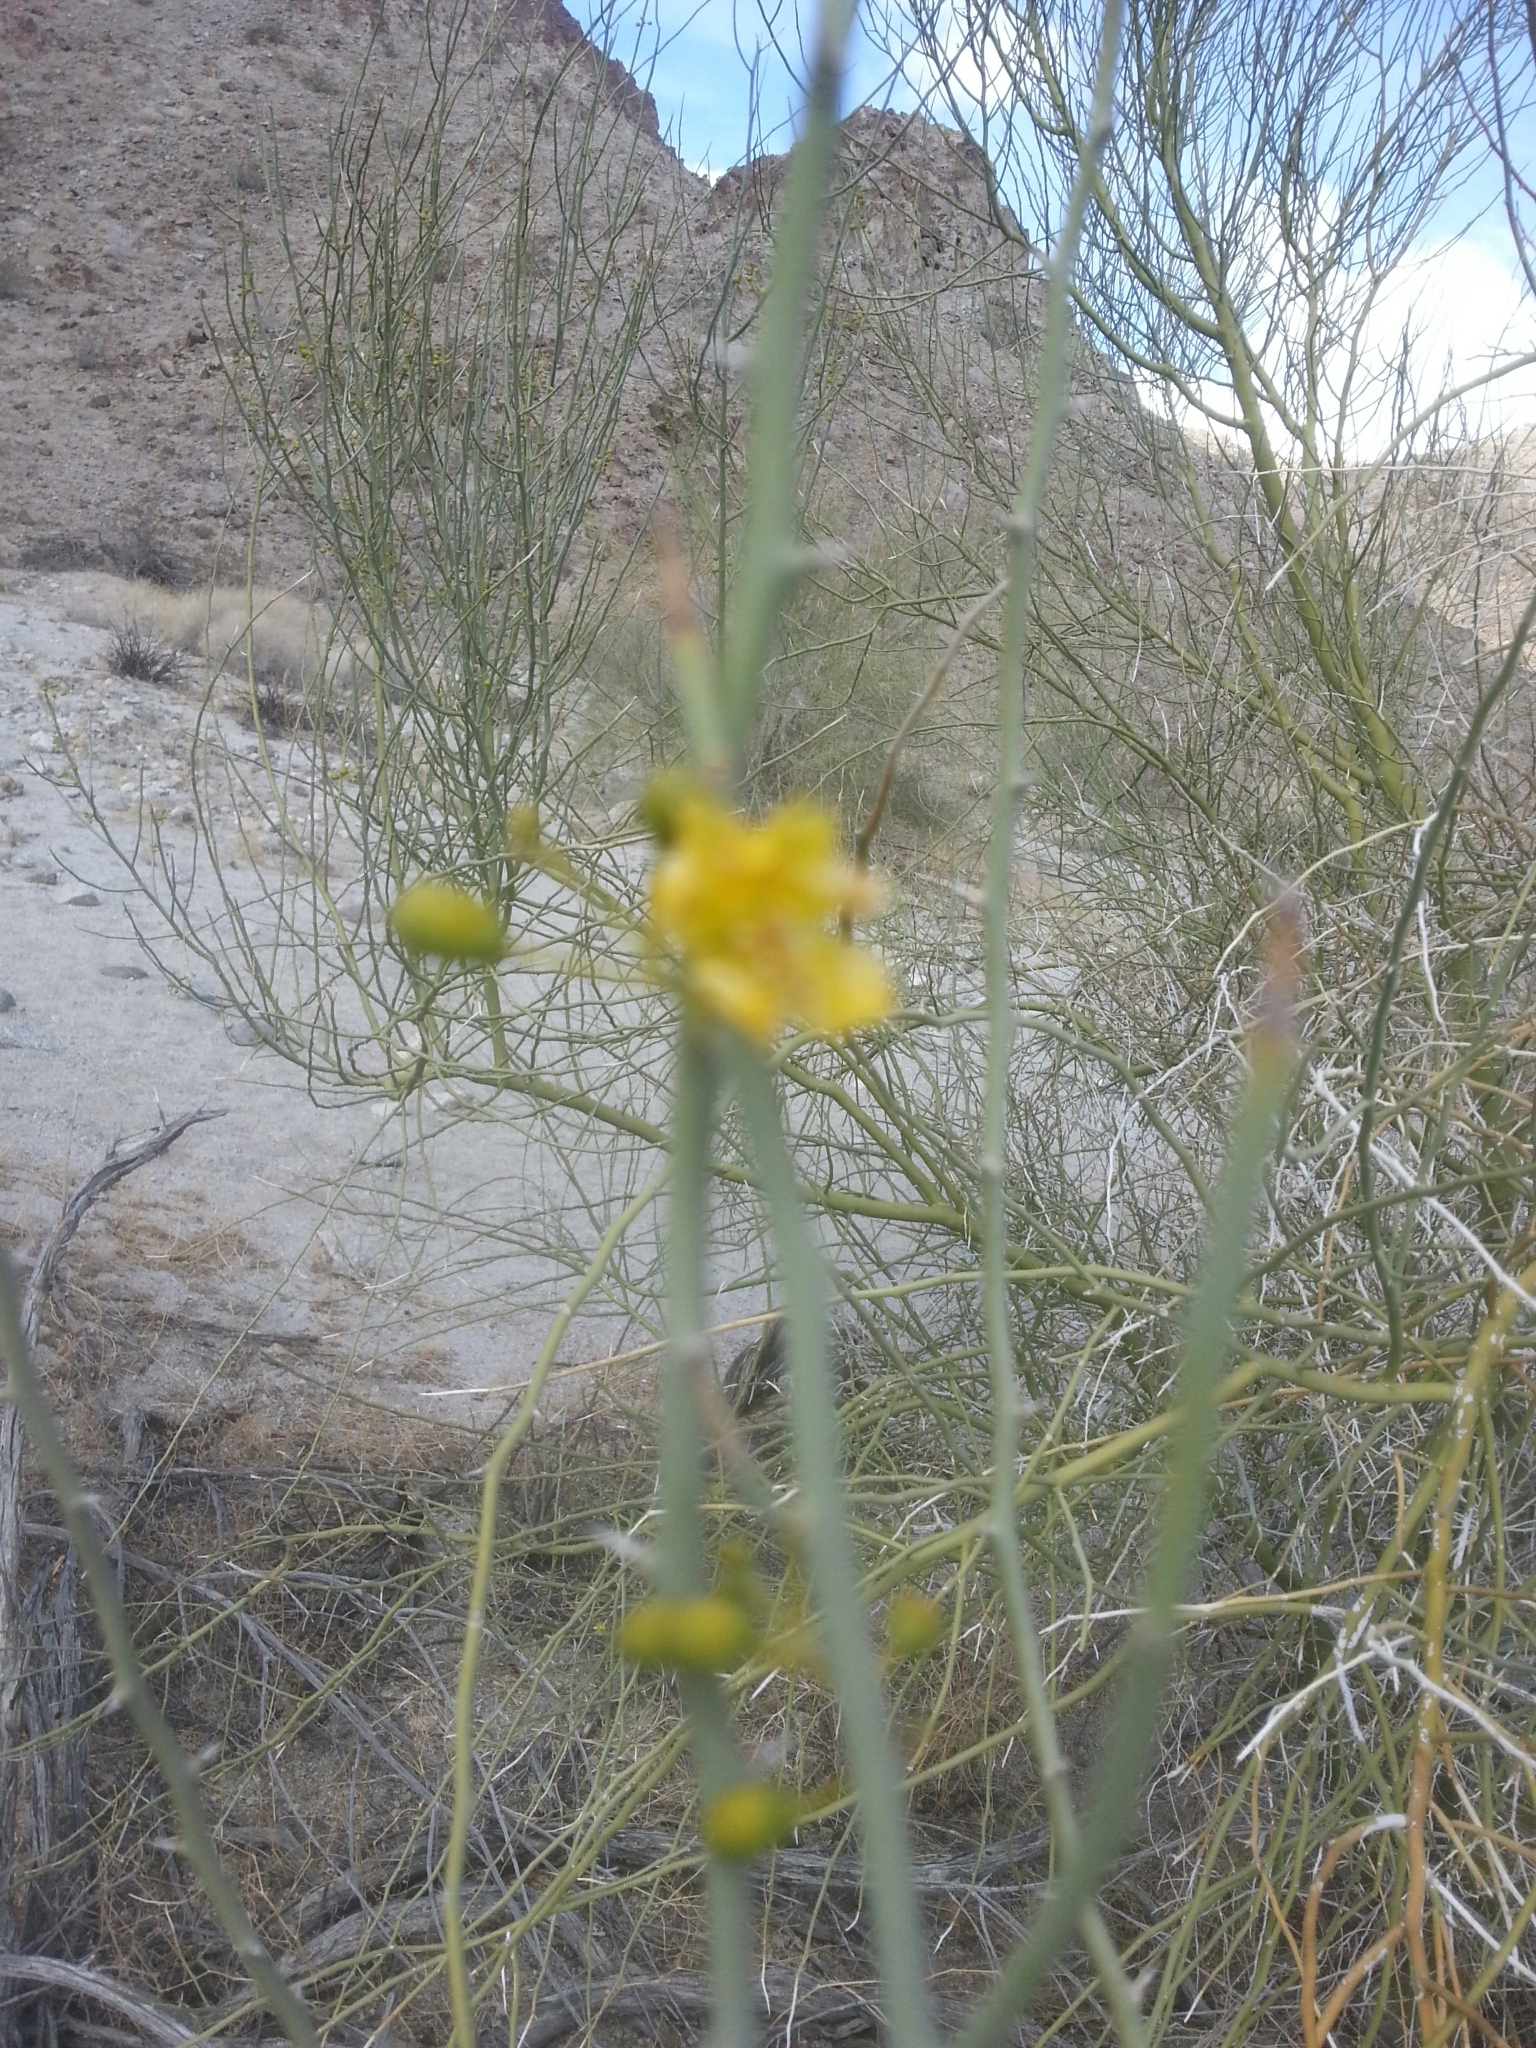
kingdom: Plantae
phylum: Tracheophyta
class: Magnoliopsida
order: Fabales
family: Fabaceae
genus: Parkinsonia
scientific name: Parkinsonia florida
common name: Blue paloverde
